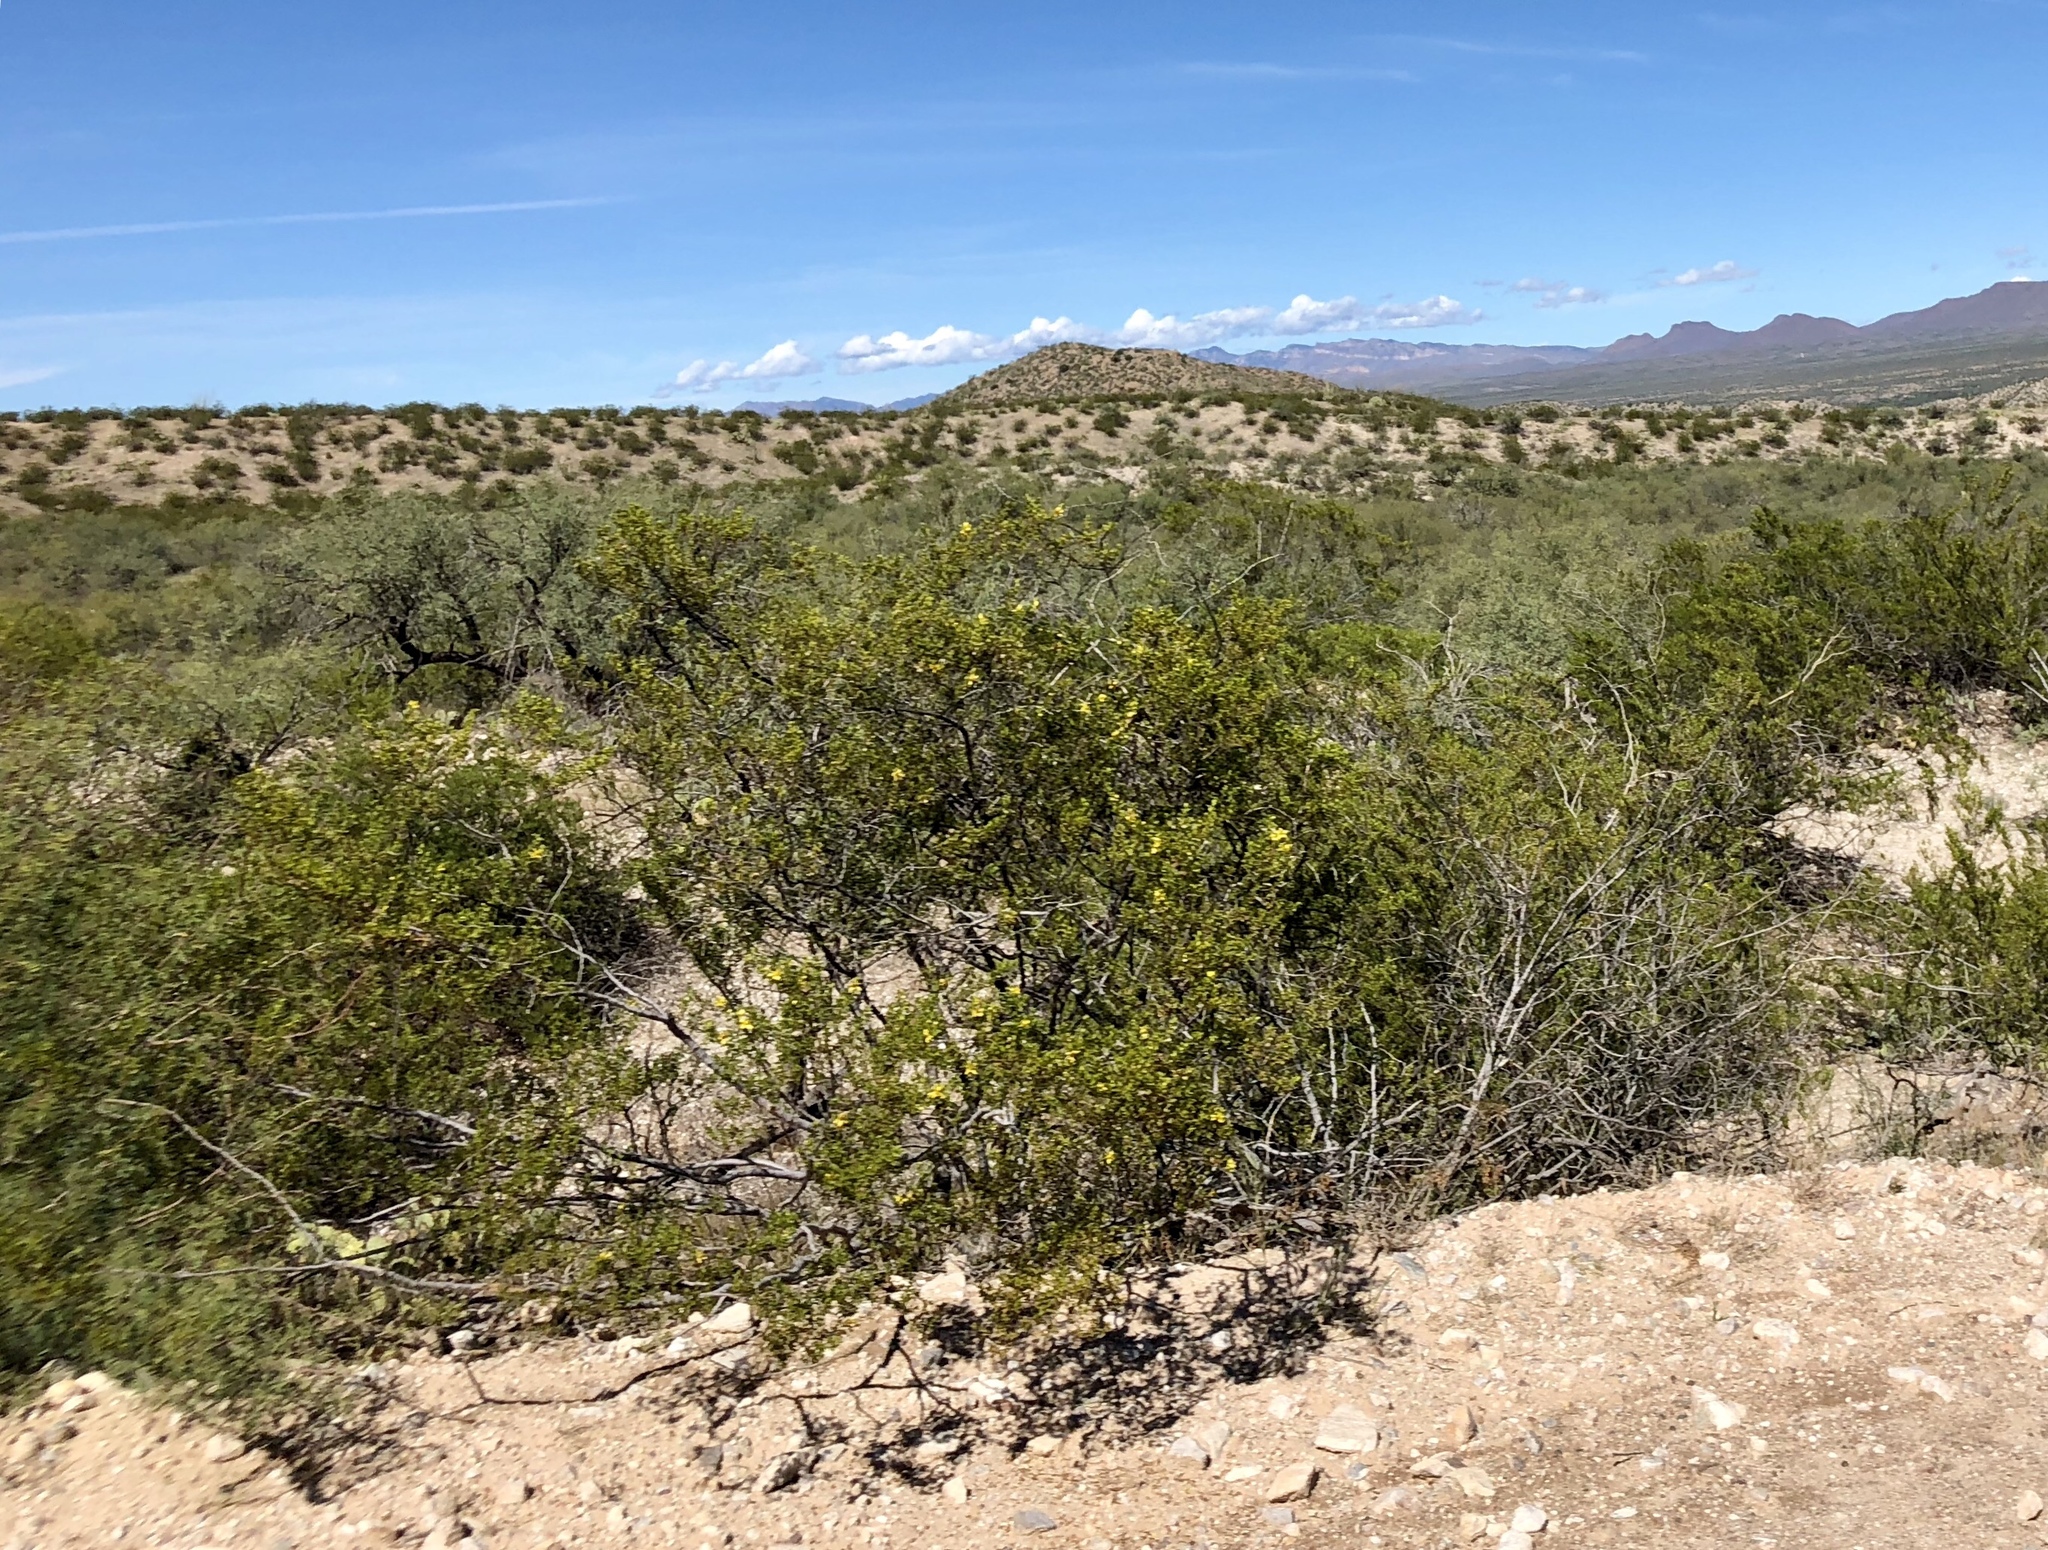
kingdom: Plantae
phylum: Tracheophyta
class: Magnoliopsida
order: Zygophyllales
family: Zygophyllaceae
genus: Larrea
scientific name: Larrea tridentata
